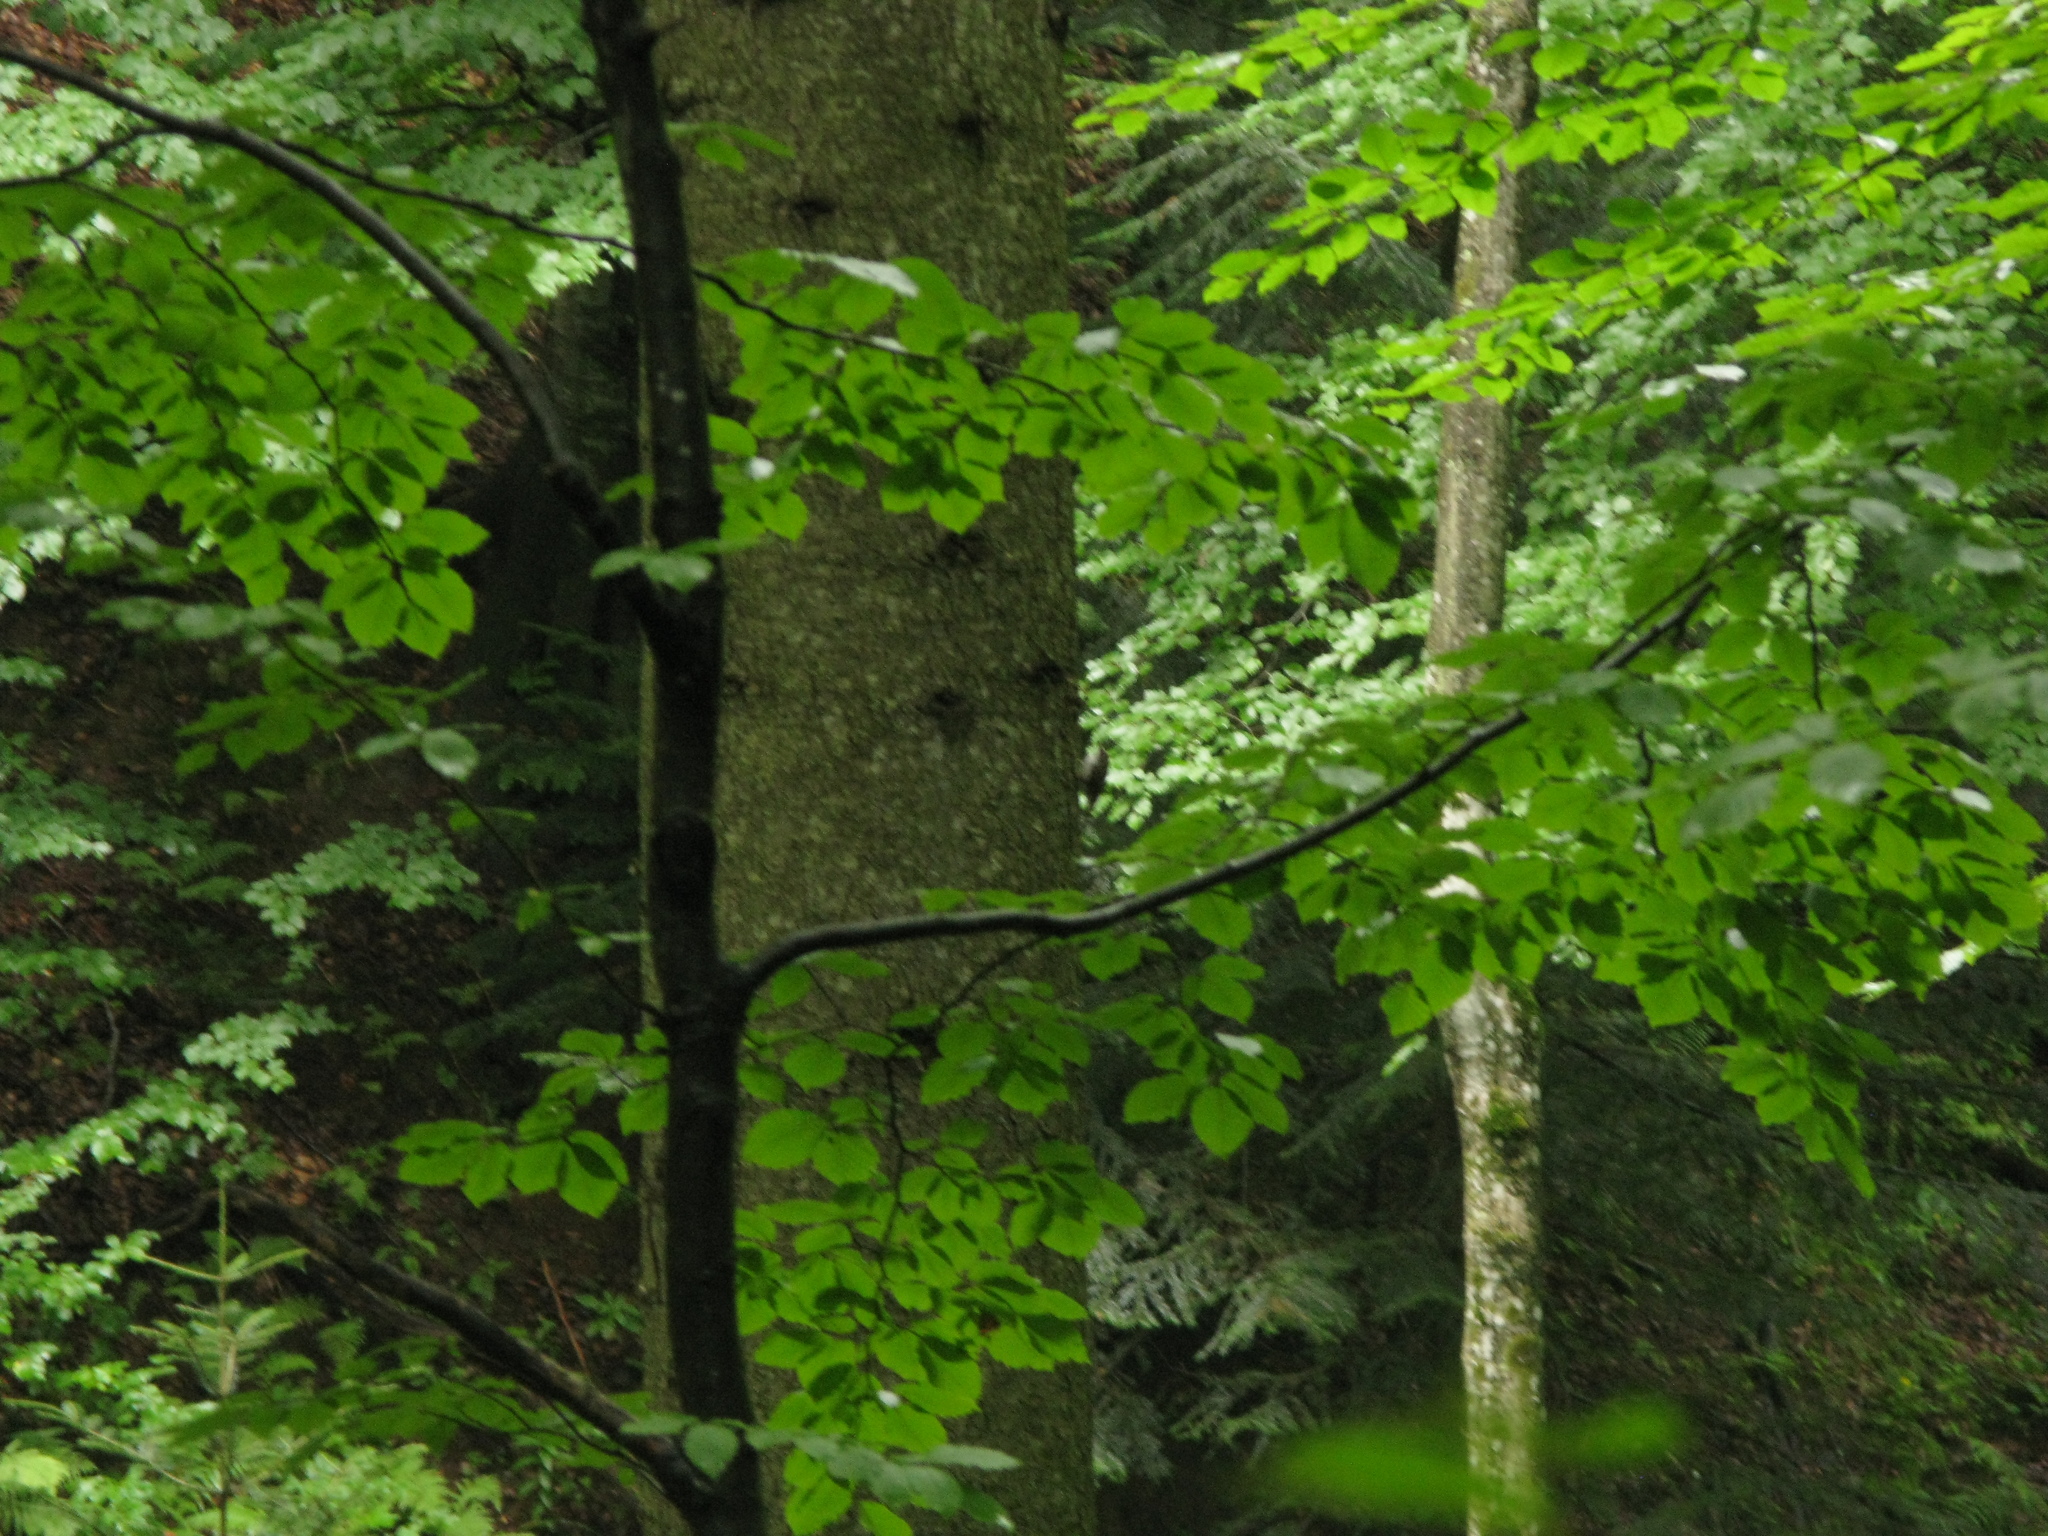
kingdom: Animalia
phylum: Chordata
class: Aves
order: Passeriformes
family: Certhiidae
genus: Certhia
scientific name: Certhia
